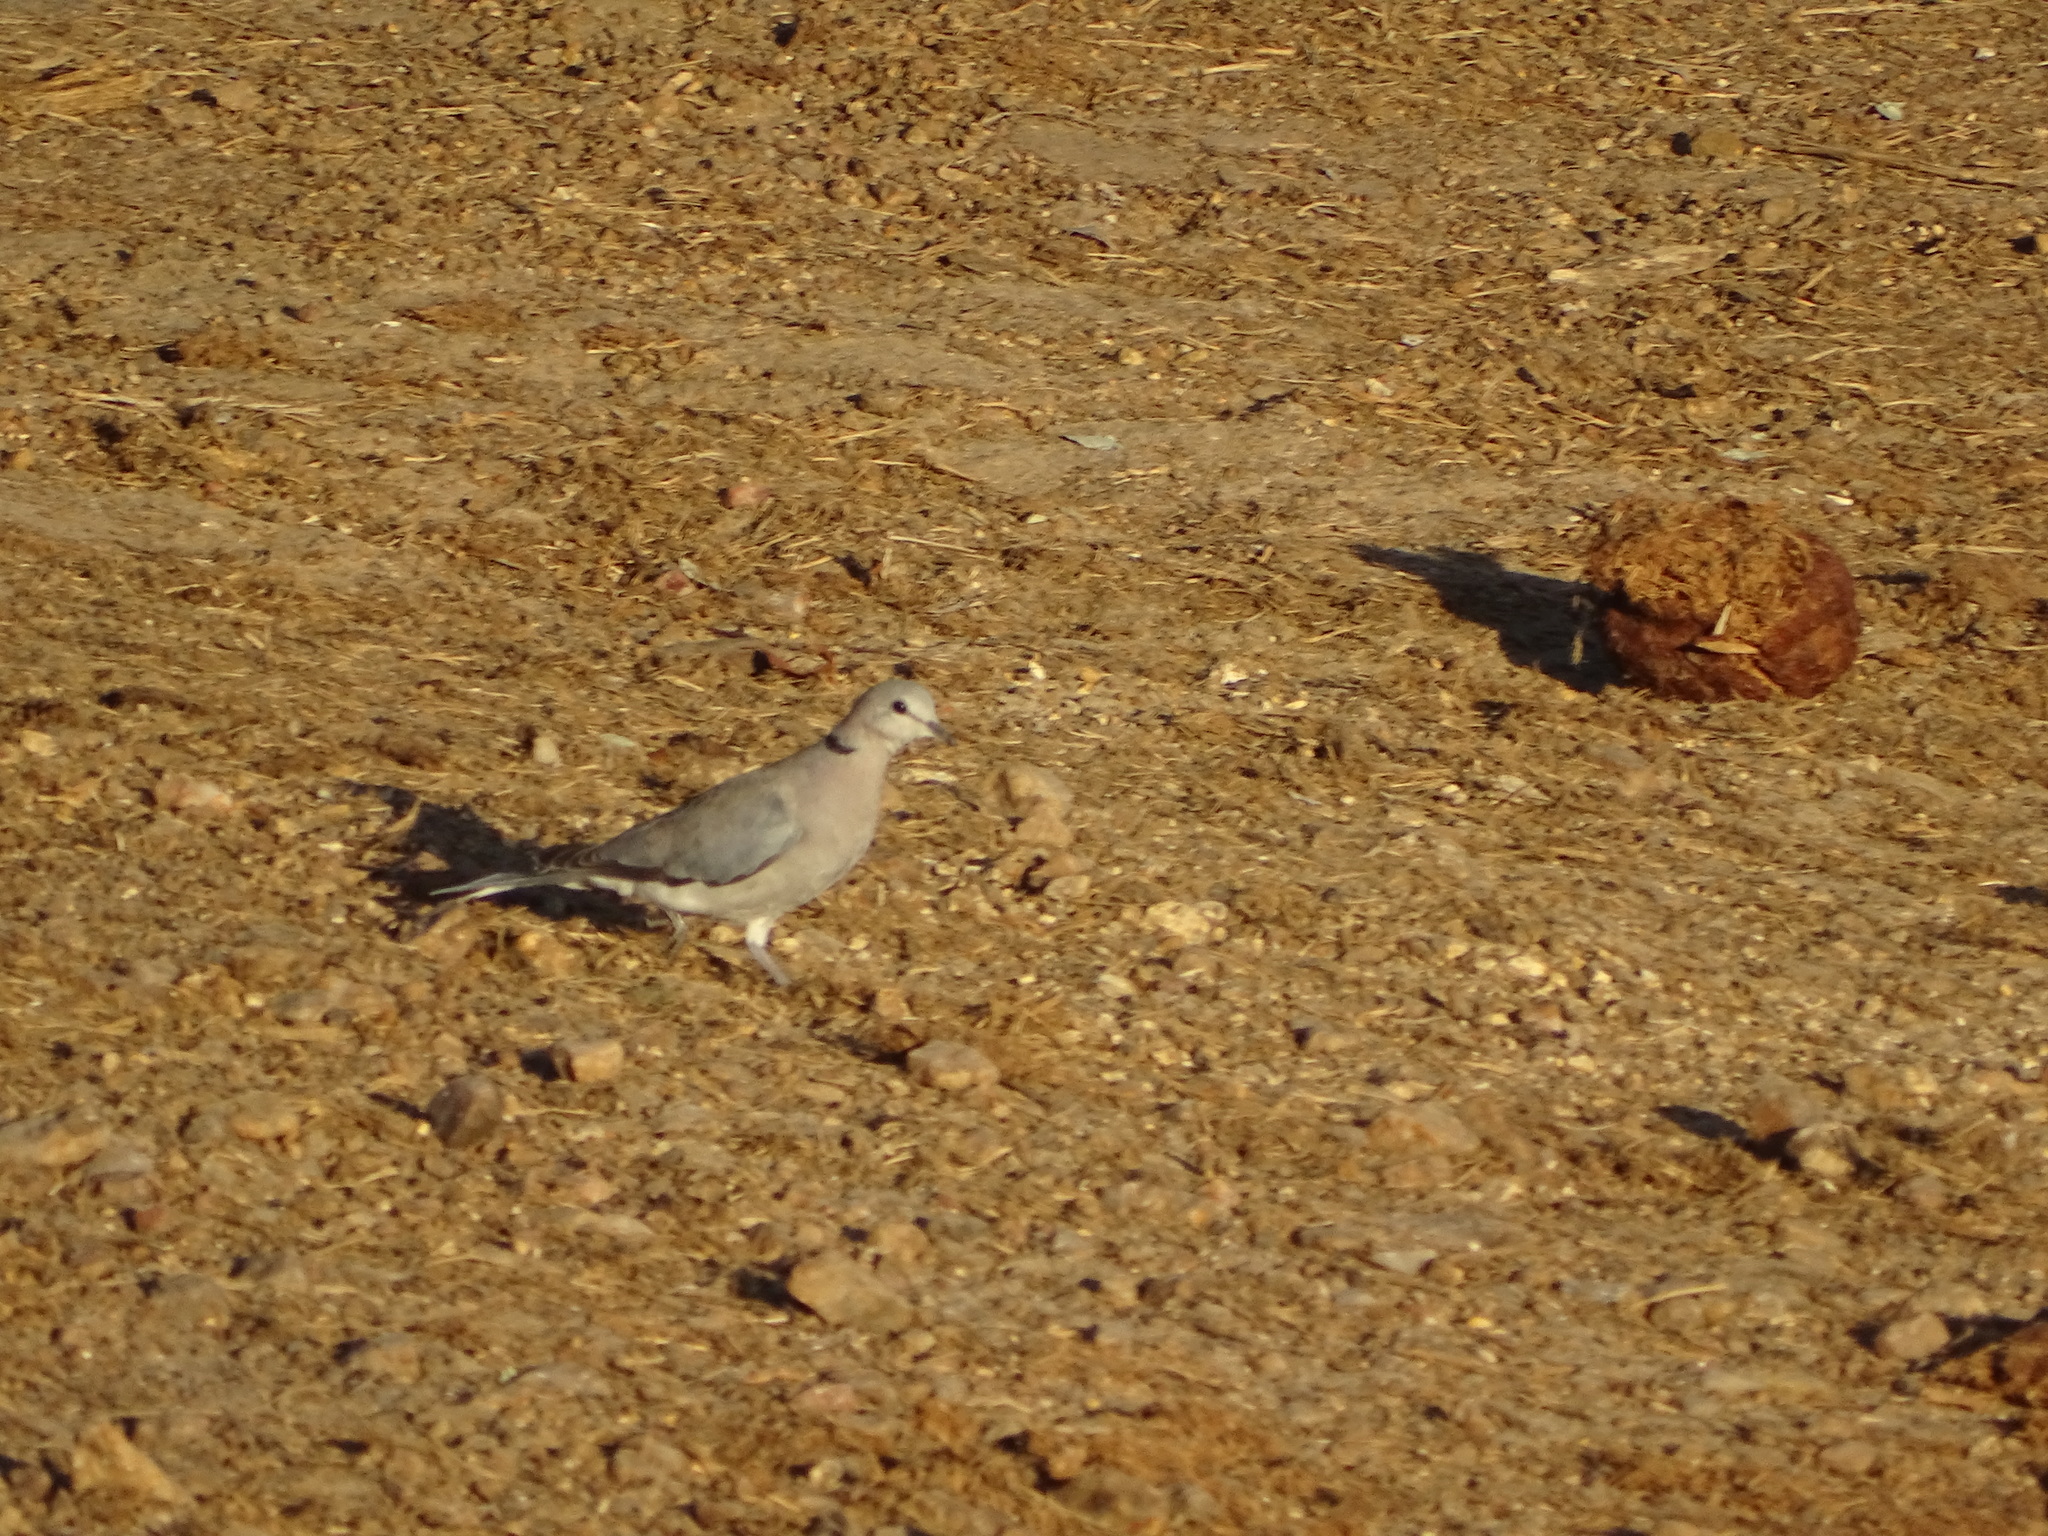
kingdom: Animalia
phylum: Chordata
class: Aves
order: Columbiformes
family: Columbidae
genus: Streptopelia
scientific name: Streptopelia capicola
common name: Ring-necked dove
